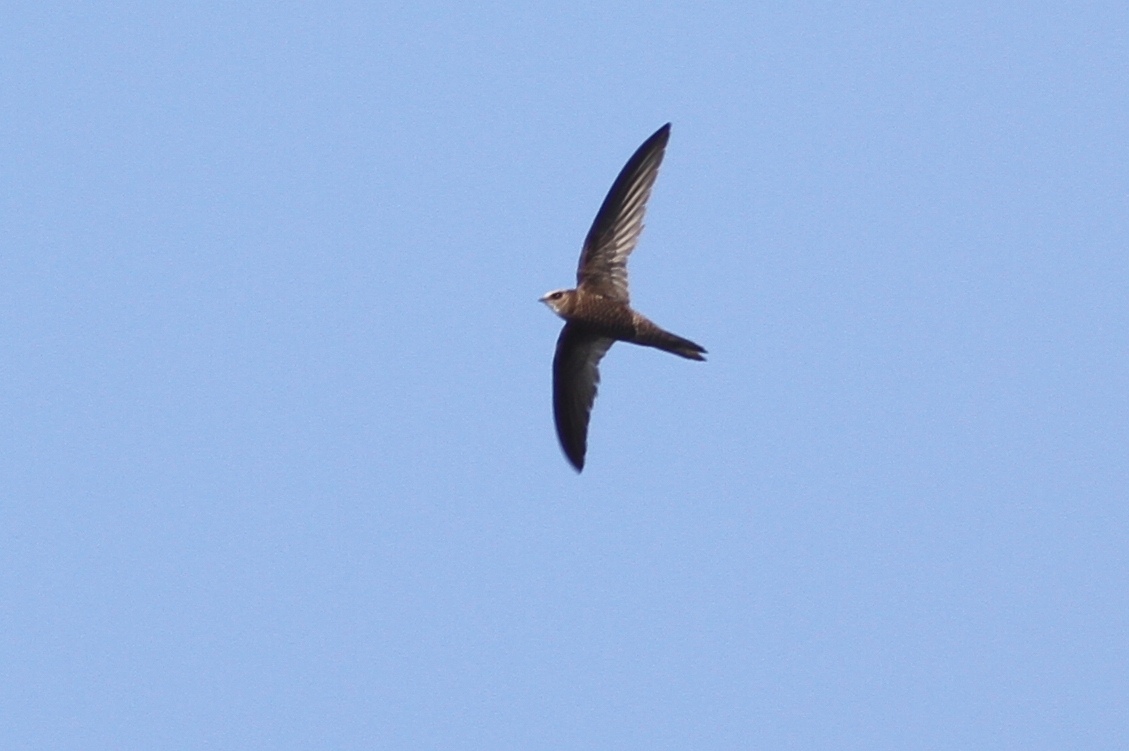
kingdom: Animalia
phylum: Chordata
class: Aves
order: Apodiformes
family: Apodidae
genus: Apus
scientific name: Apus pallidus
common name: Pallid swift
